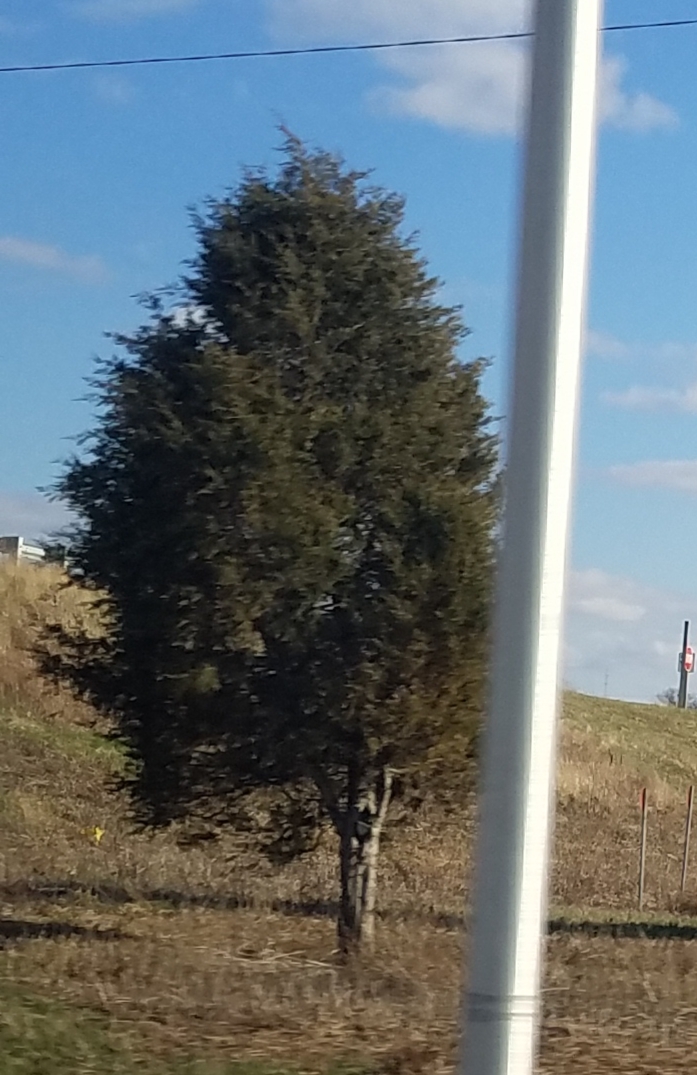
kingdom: Plantae
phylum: Tracheophyta
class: Pinopsida
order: Pinales
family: Cupressaceae
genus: Juniperus
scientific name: Juniperus virginiana
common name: Red juniper
